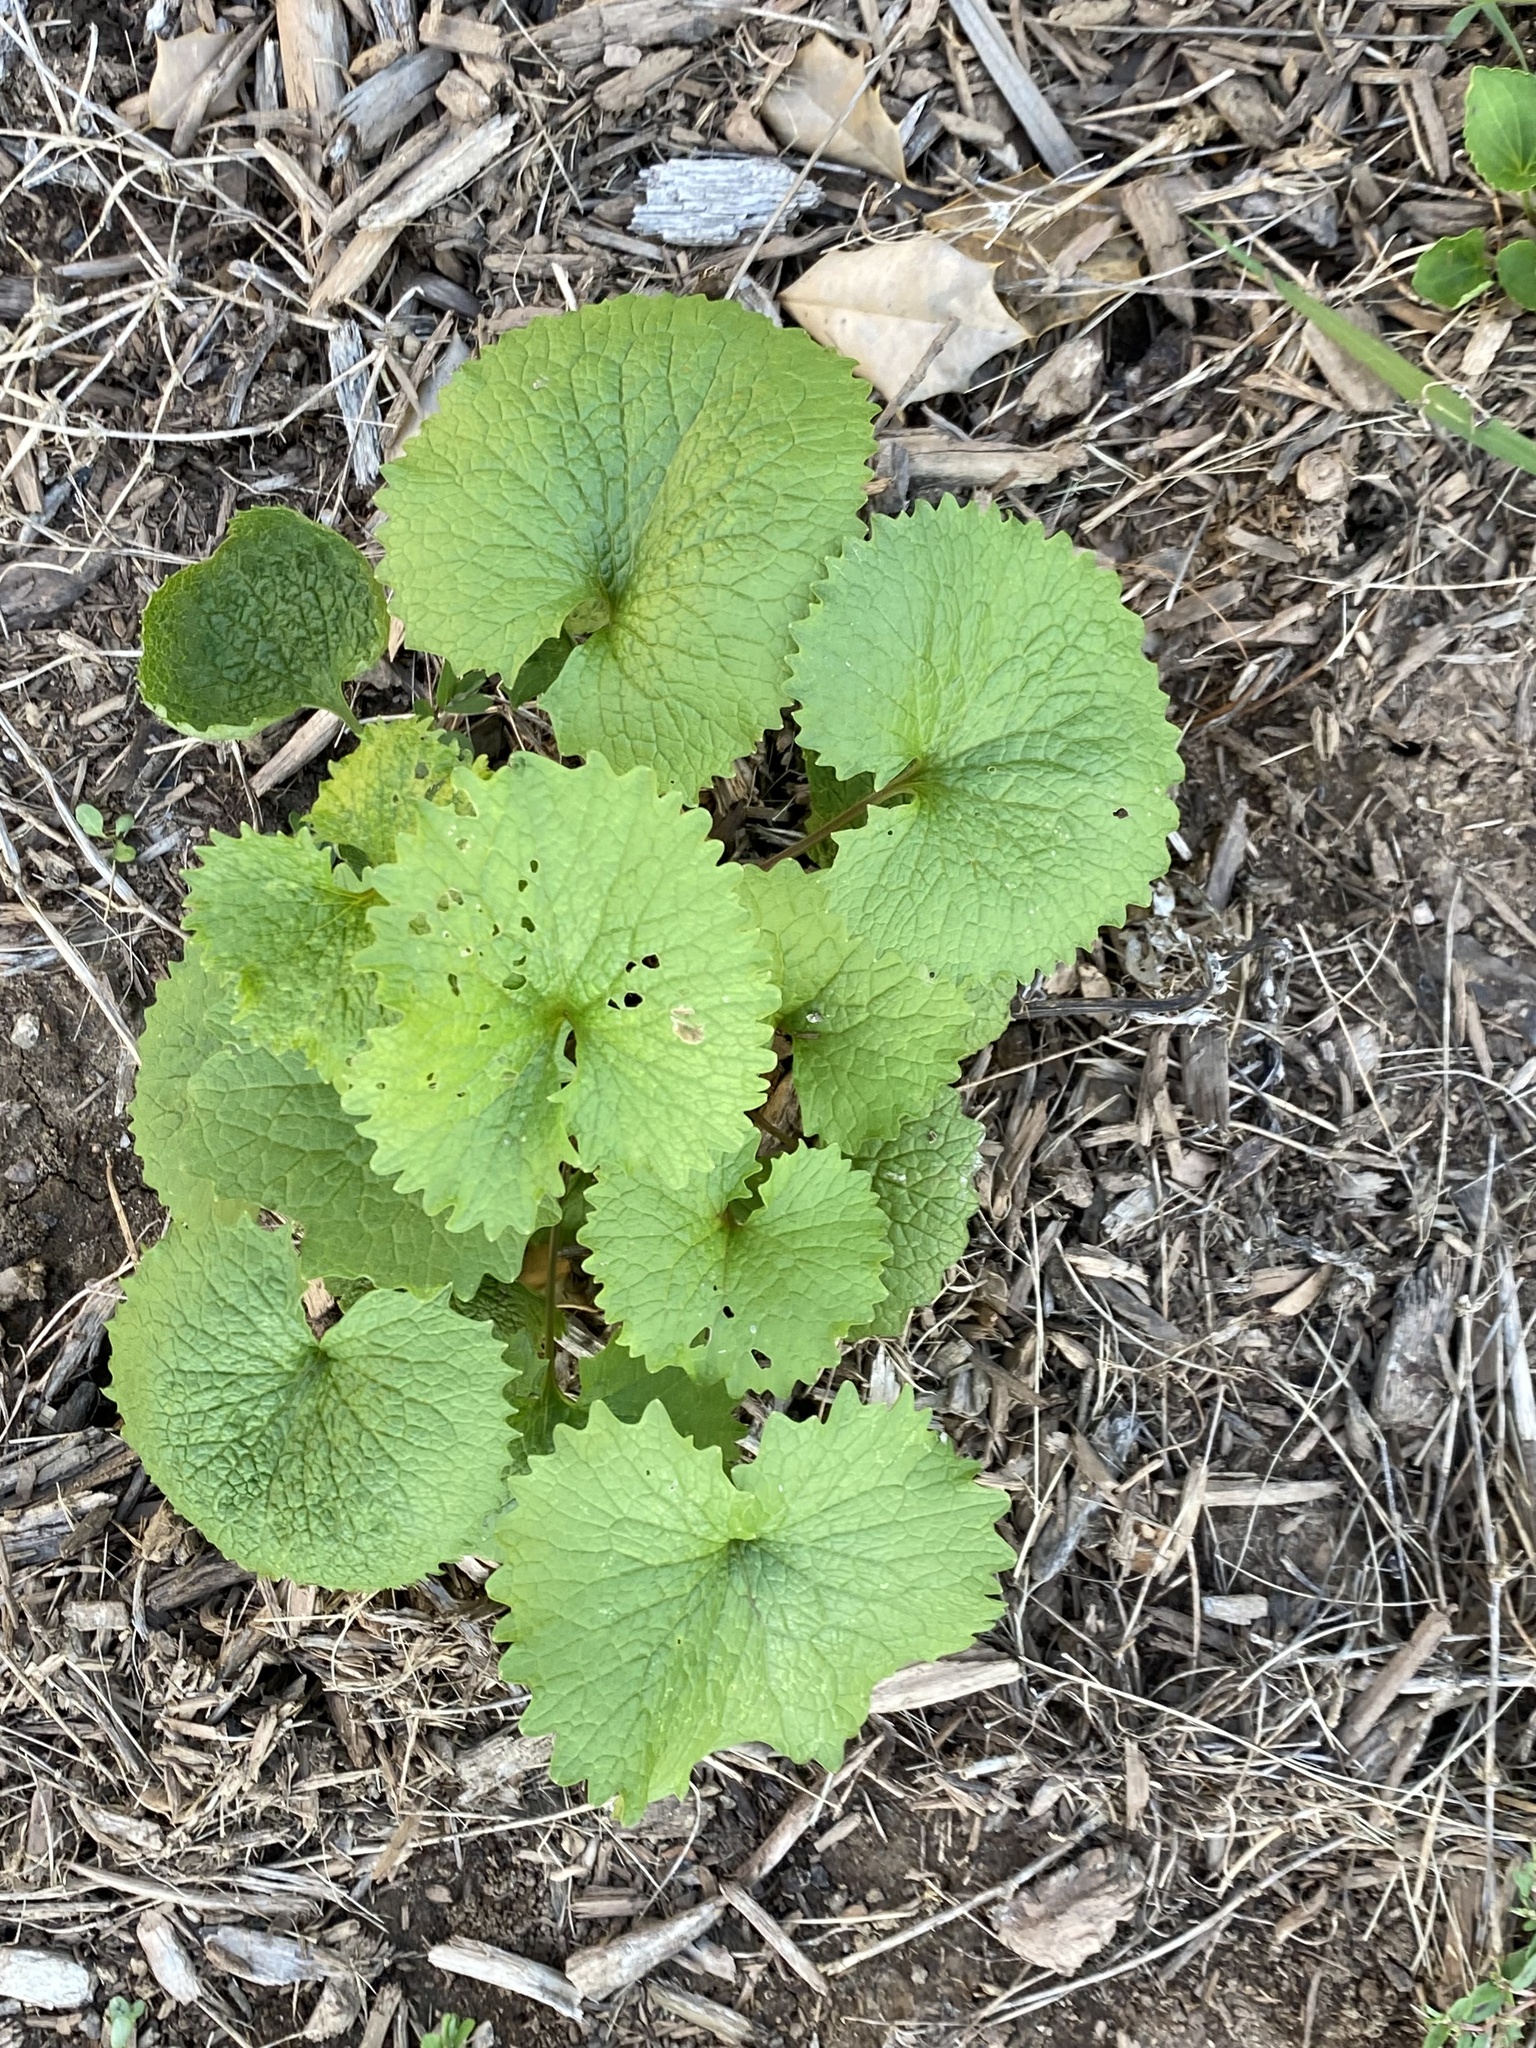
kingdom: Plantae
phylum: Tracheophyta
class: Magnoliopsida
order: Brassicales
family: Brassicaceae
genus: Alliaria
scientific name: Alliaria petiolata
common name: Garlic mustard
